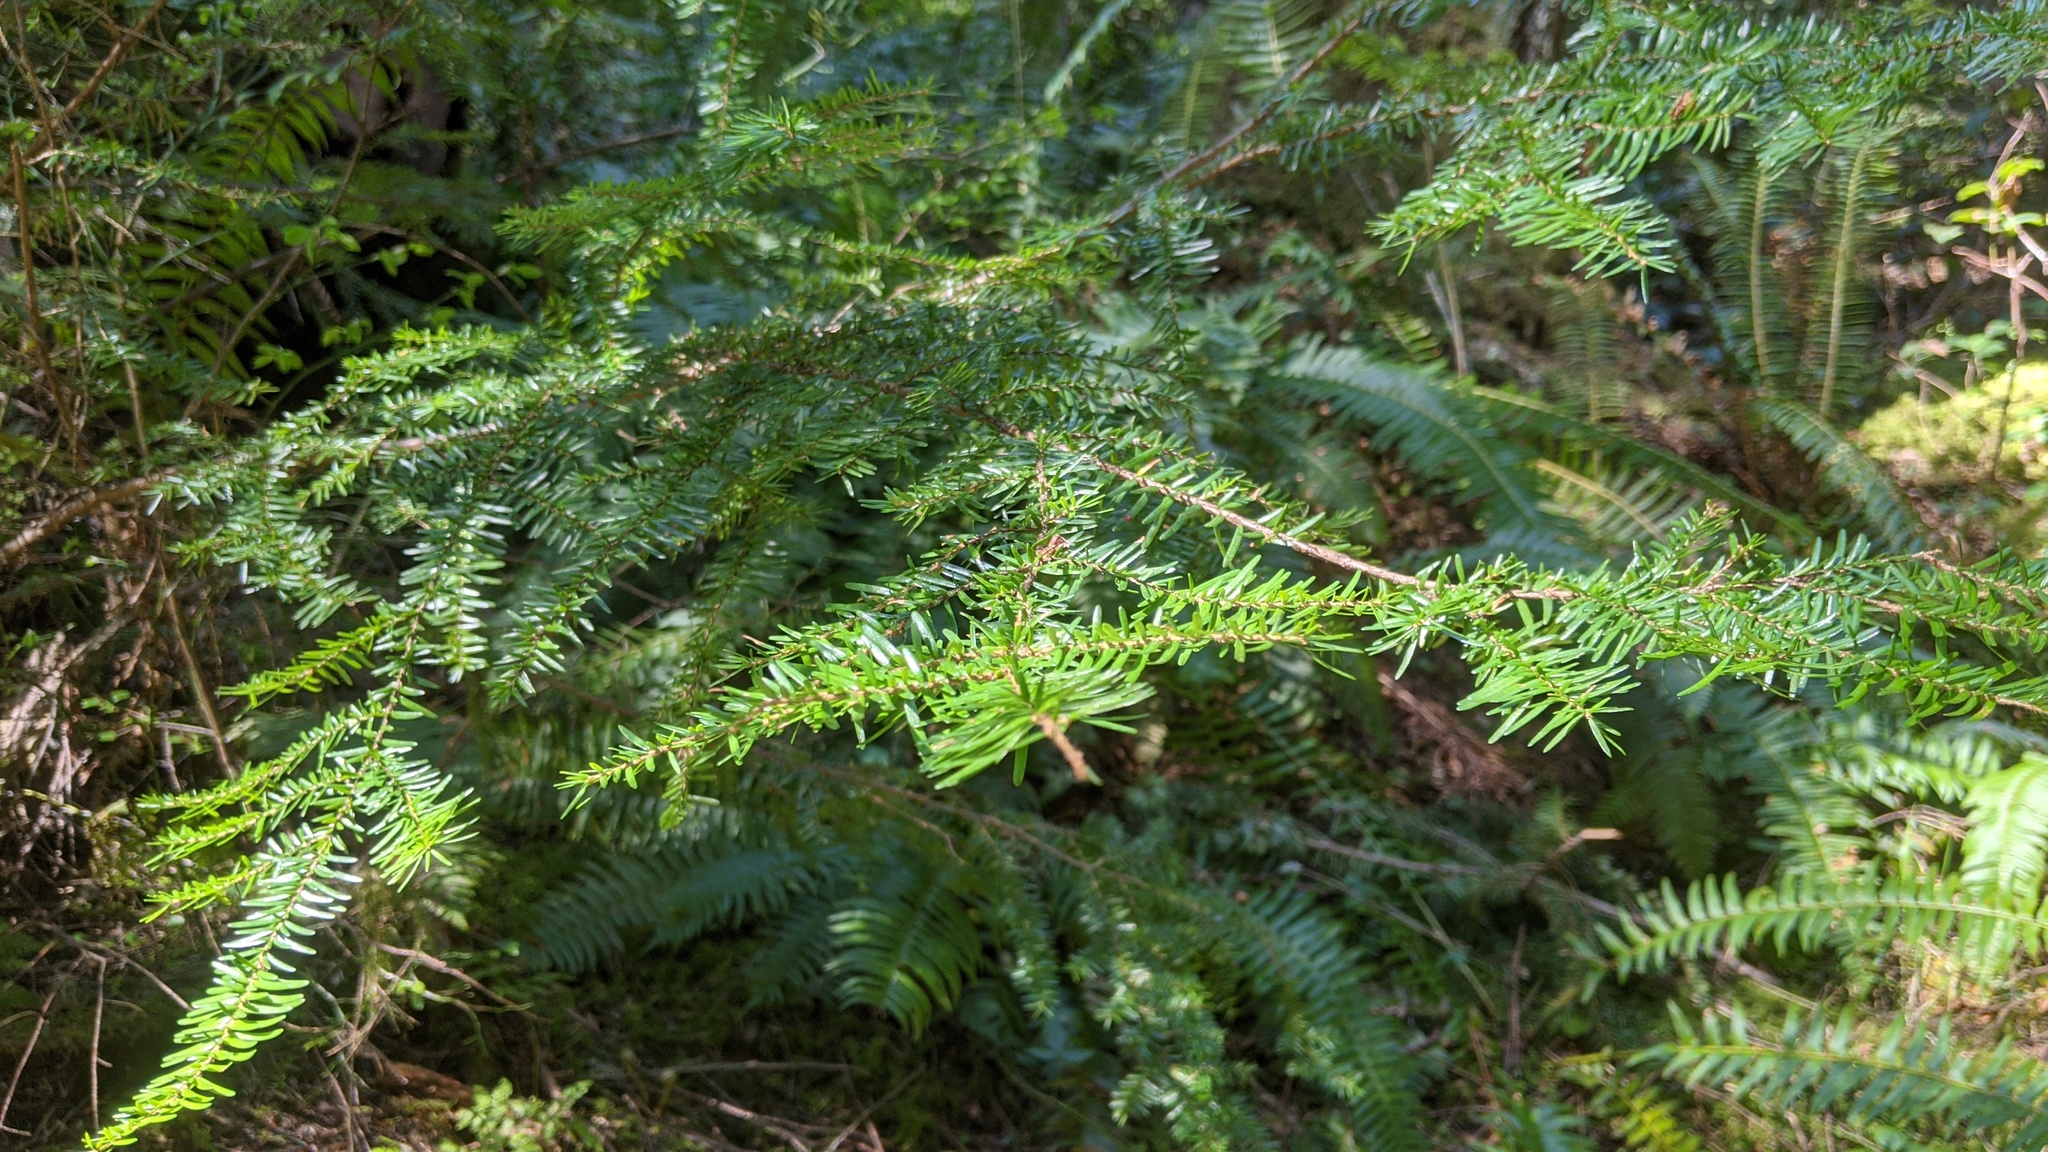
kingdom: Plantae
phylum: Tracheophyta
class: Pinopsida
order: Pinales
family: Pinaceae
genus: Tsuga
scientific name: Tsuga heterophylla
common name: Western hemlock
